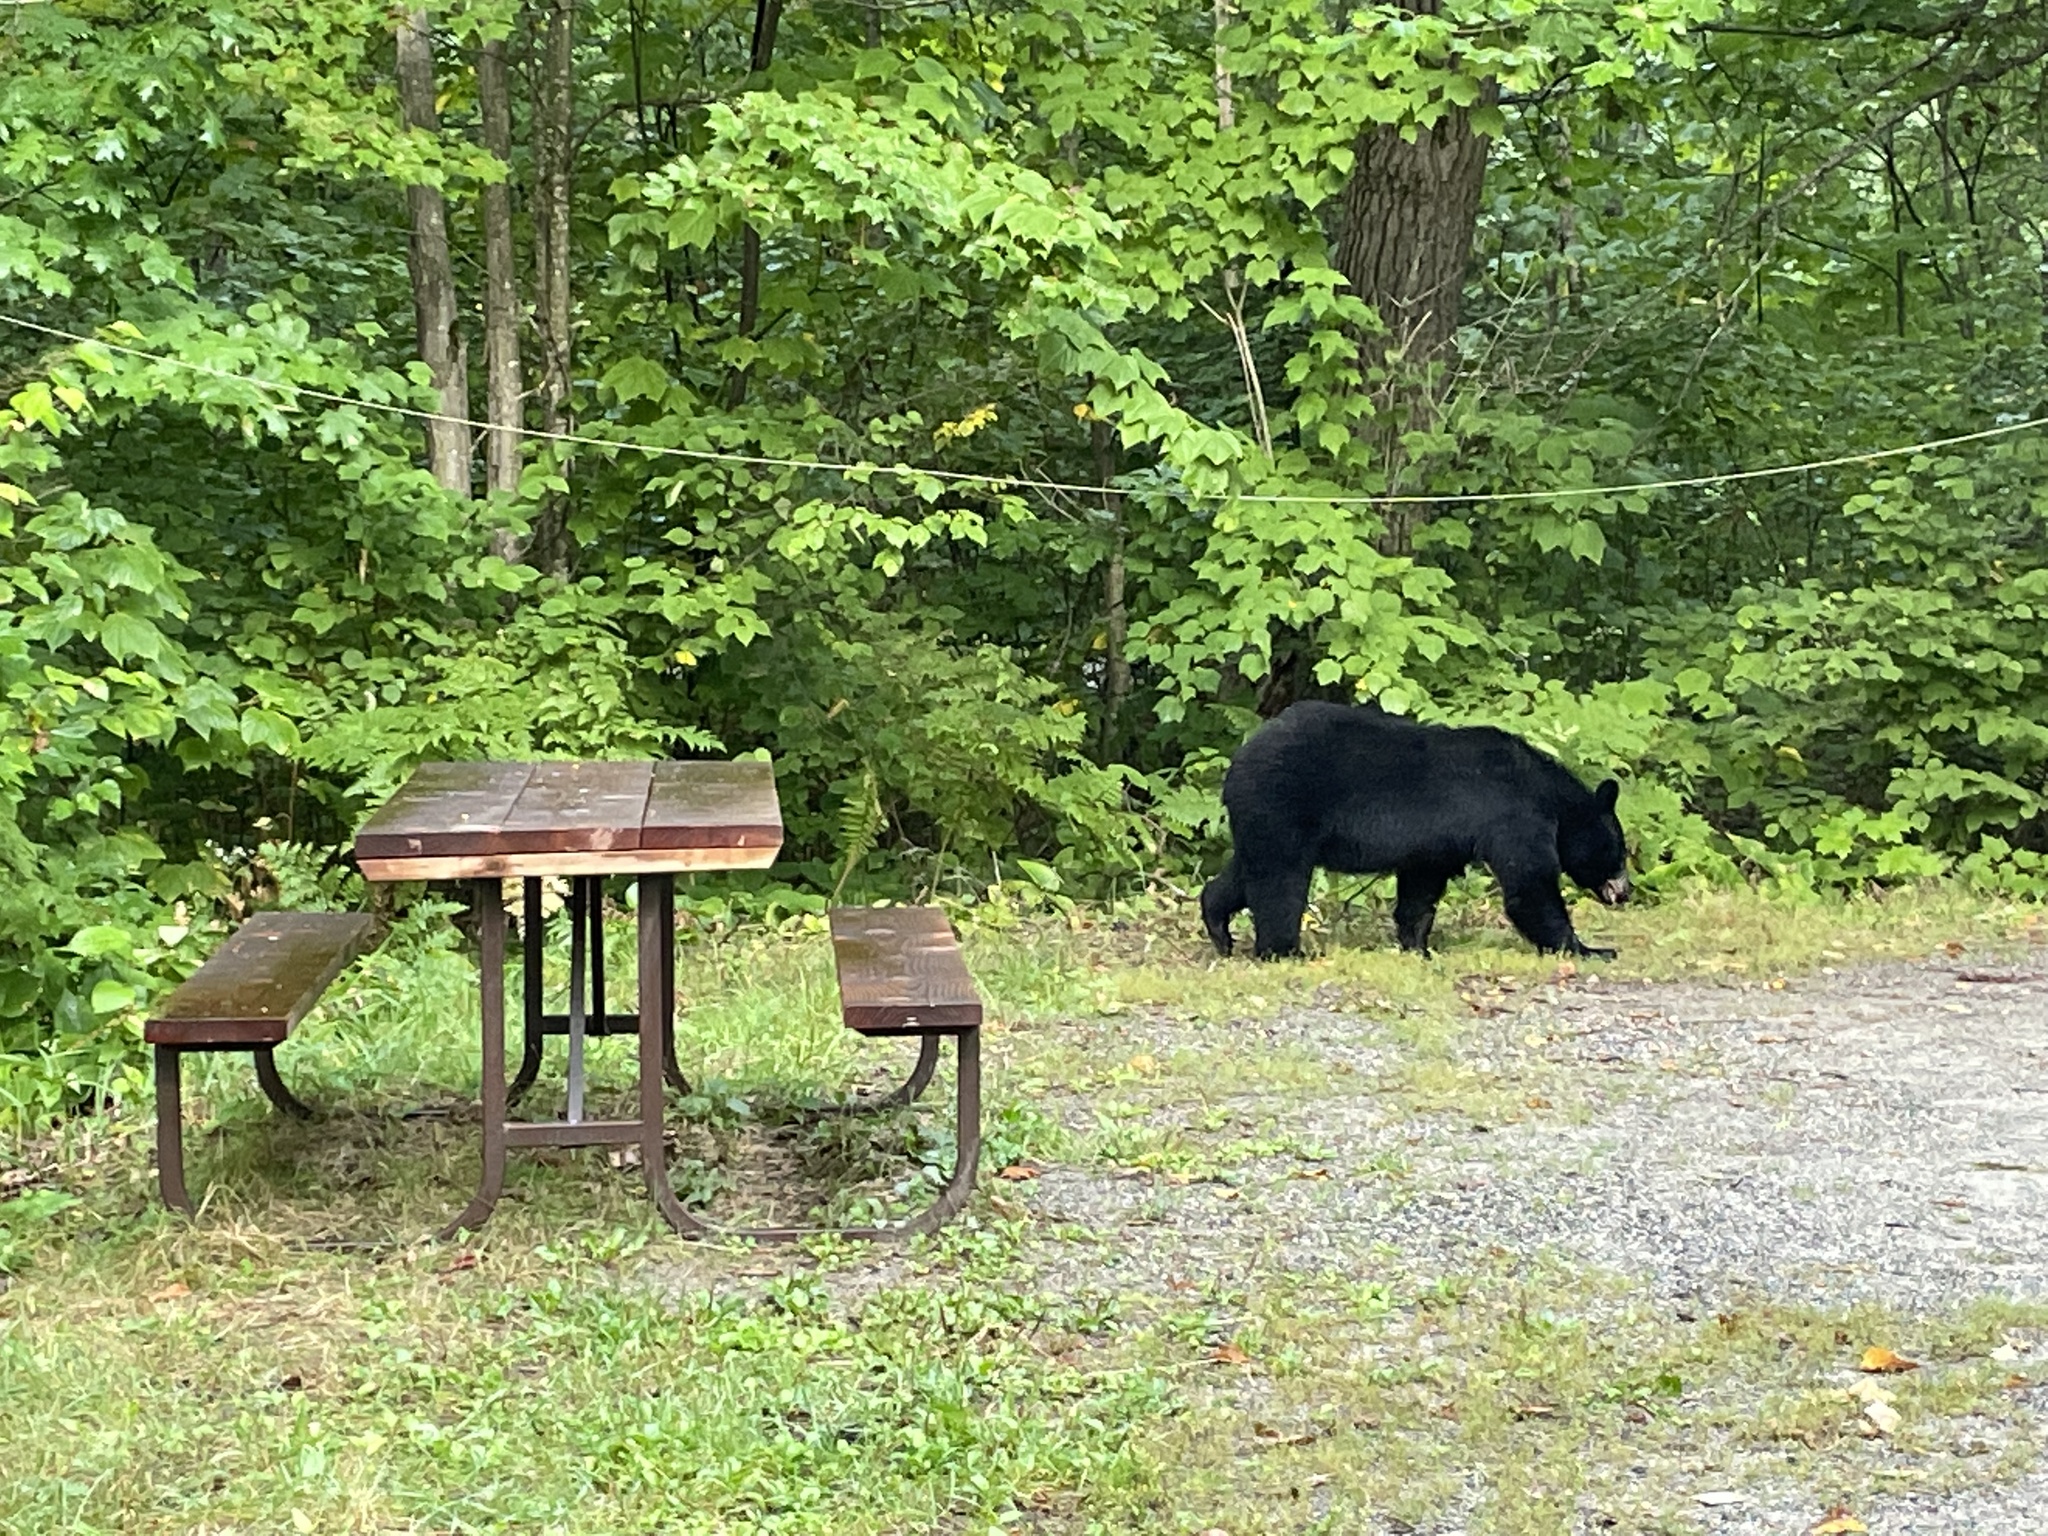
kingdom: Animalia
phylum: Chordata
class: Mammalia
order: Carnivora
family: Ursidae
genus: Ursus
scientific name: Ursus americanus
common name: American black bear
